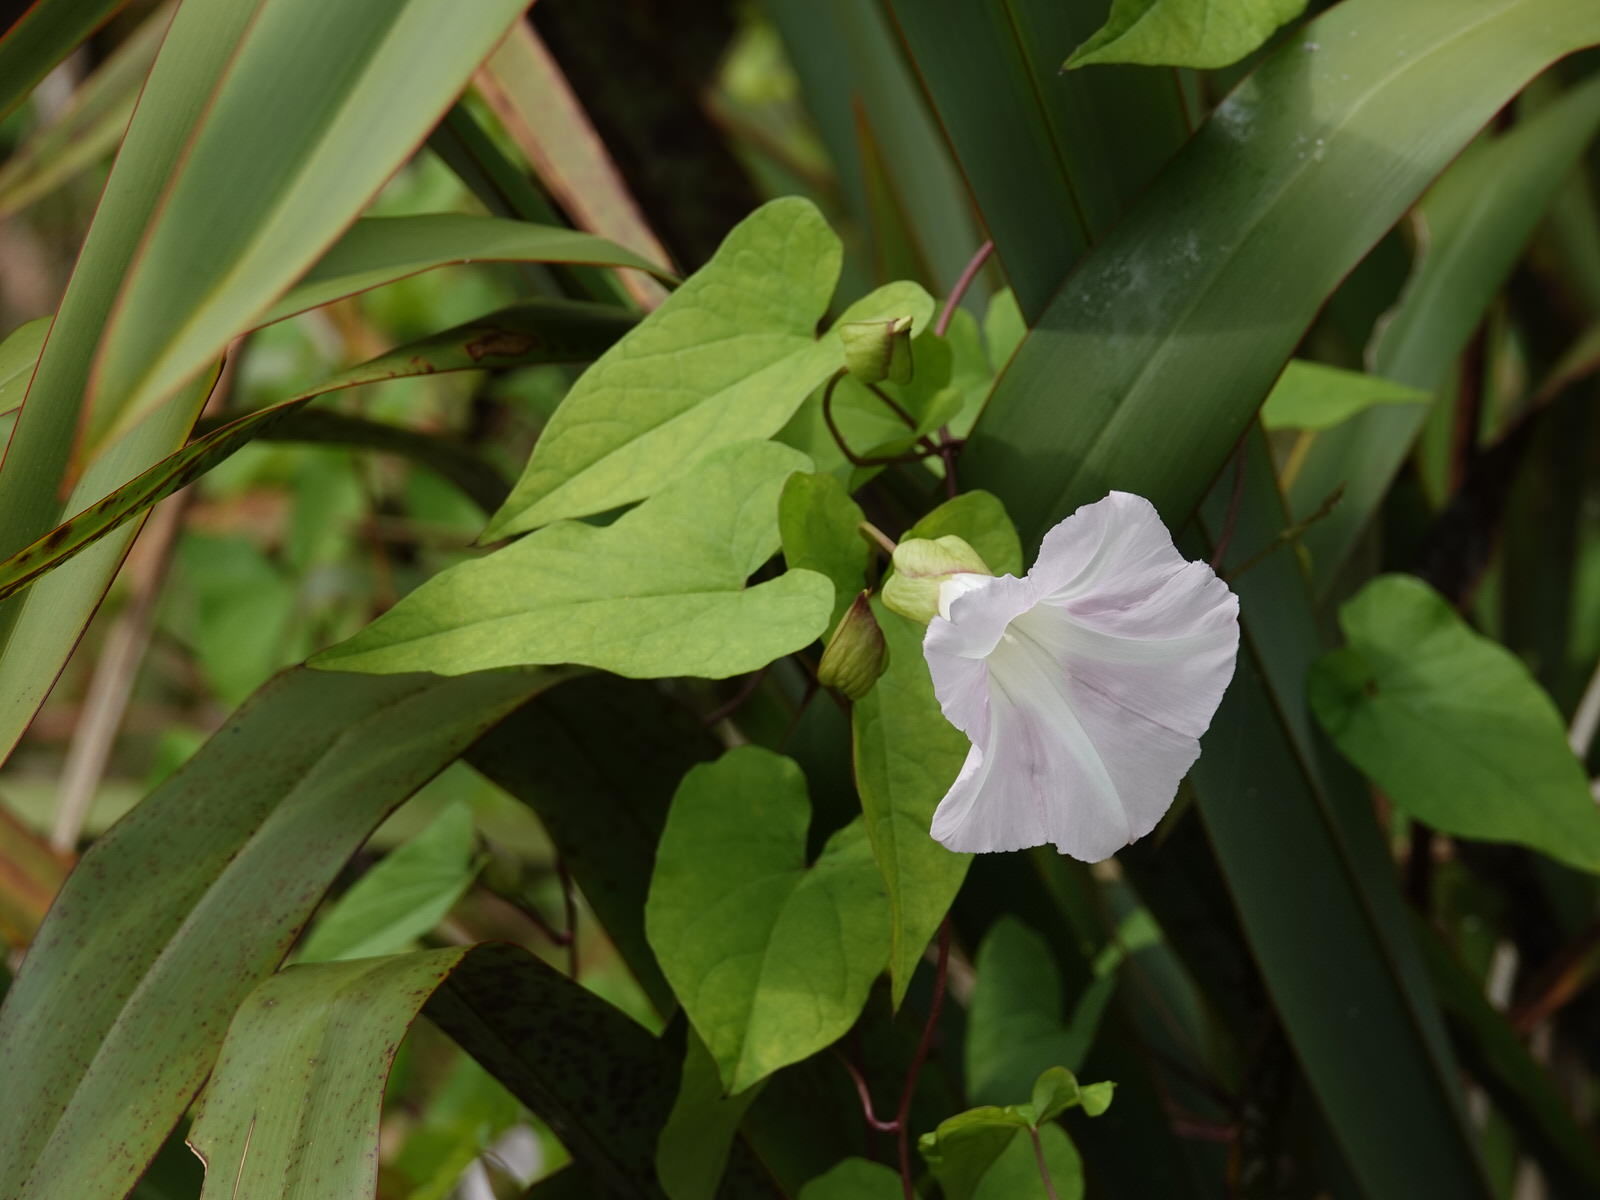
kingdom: Plantae
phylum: Tracheophyta
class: Magnoliopsida
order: Solanales
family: Convolvulaceae
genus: Calystegia
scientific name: Calystegia sepium
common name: Hedge bindweed
